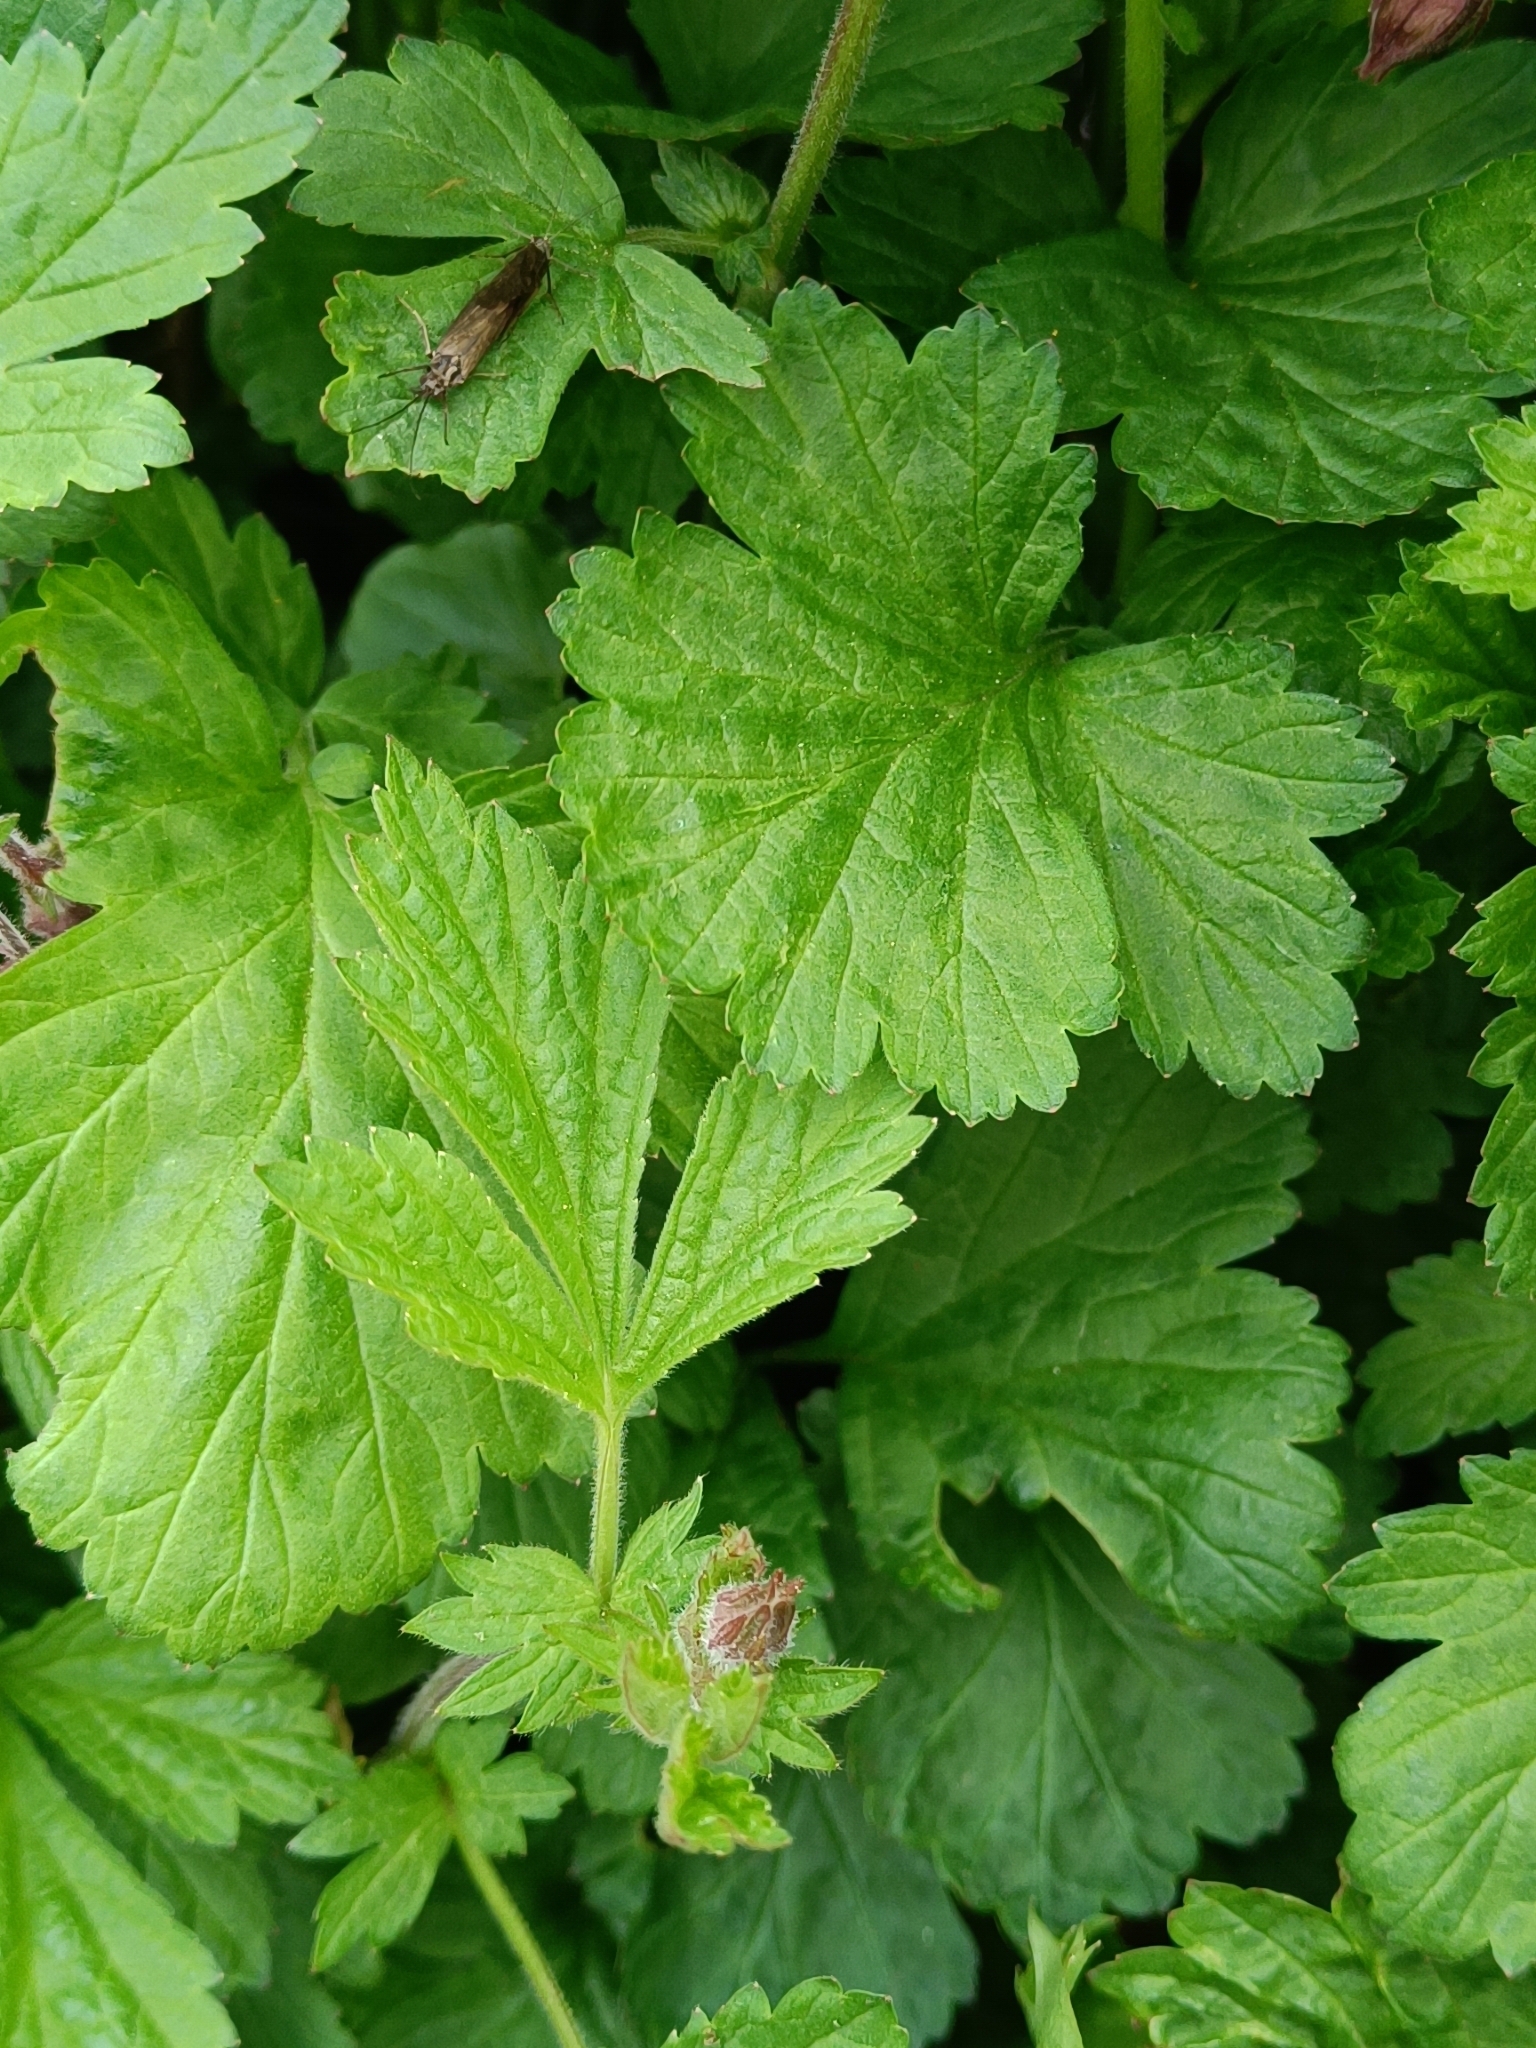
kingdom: Plantae
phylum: Tracheophyta
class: Magnoliopsida
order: Rosales
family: Rosaceae
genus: Geum
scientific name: Geum rivale
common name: Water avens
